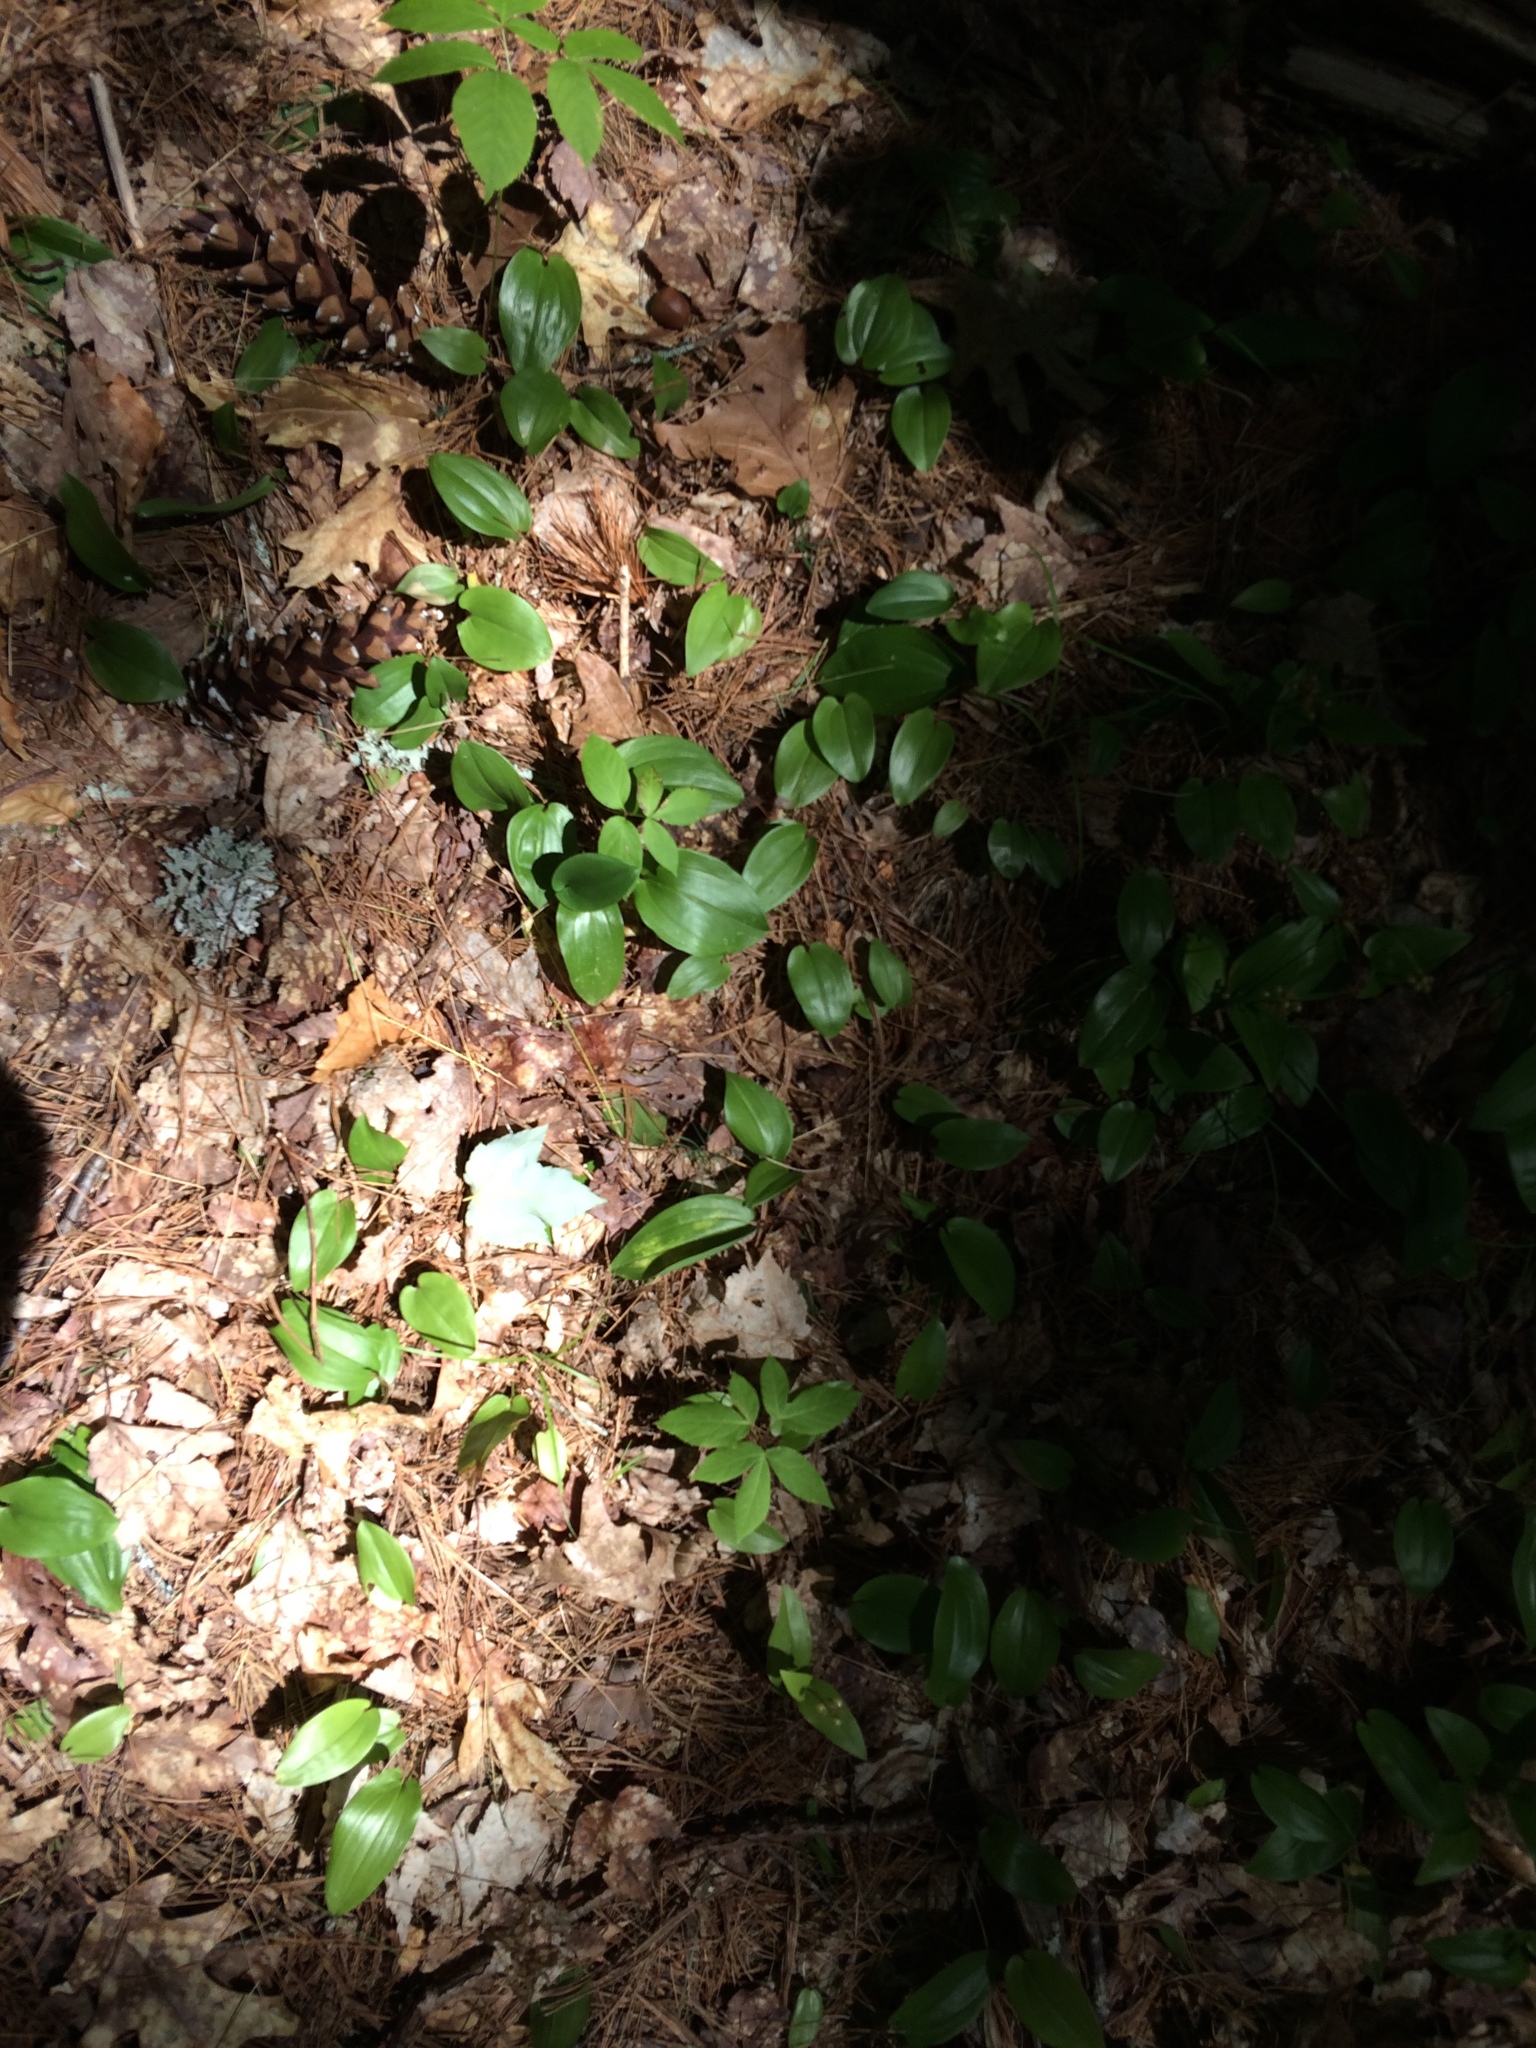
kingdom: Plantae
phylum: Tracheophyta
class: Liliopsida
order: Asparagales
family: Asparagaceae
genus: Maianthemum
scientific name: Maianthemum canadense
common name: False lily-of-the-valley
